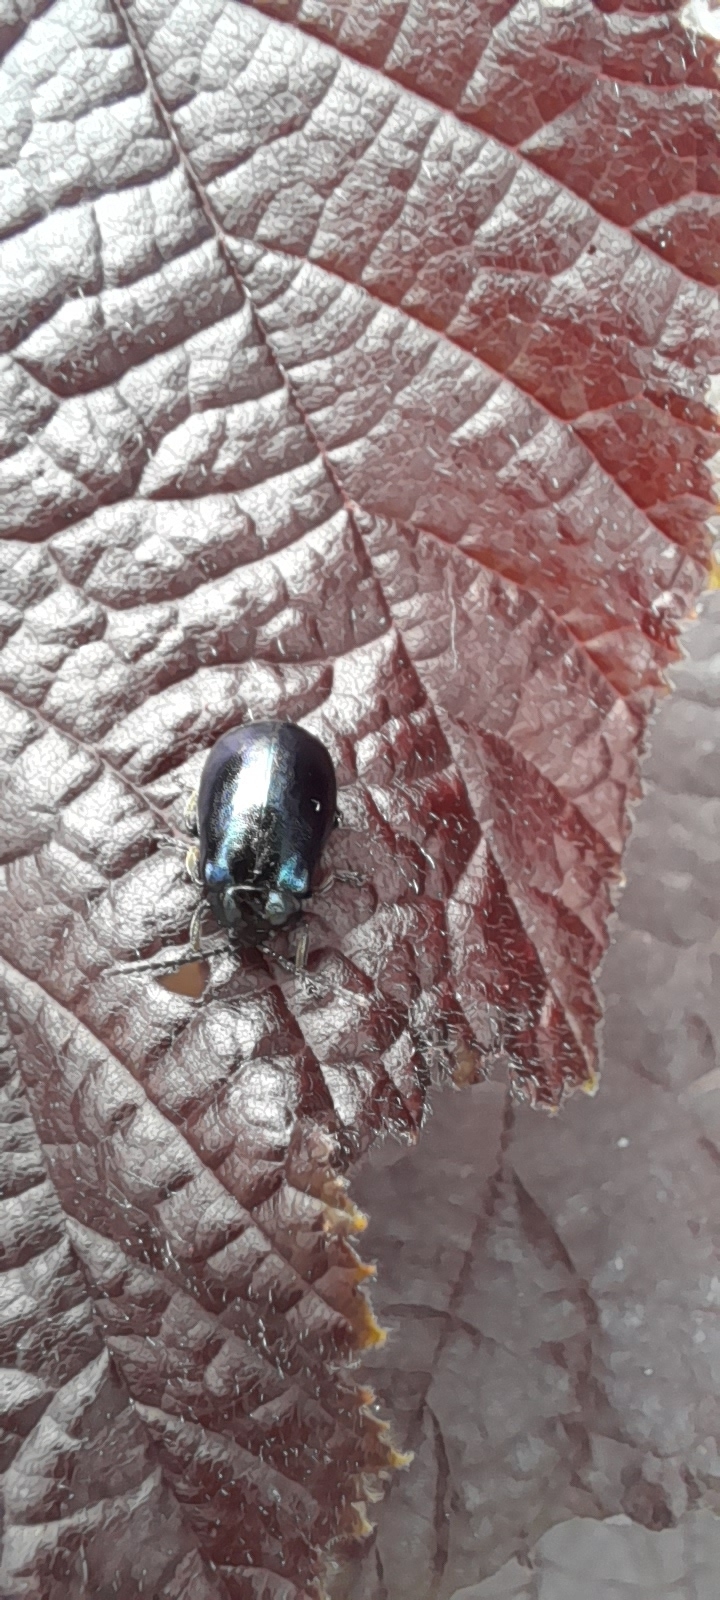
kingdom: Animalia
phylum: Arthropoda
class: Insecta
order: Coleoptera
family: Chrysomelidae
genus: Agelastica
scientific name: Agelastica alni
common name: Alder leaf beetle
